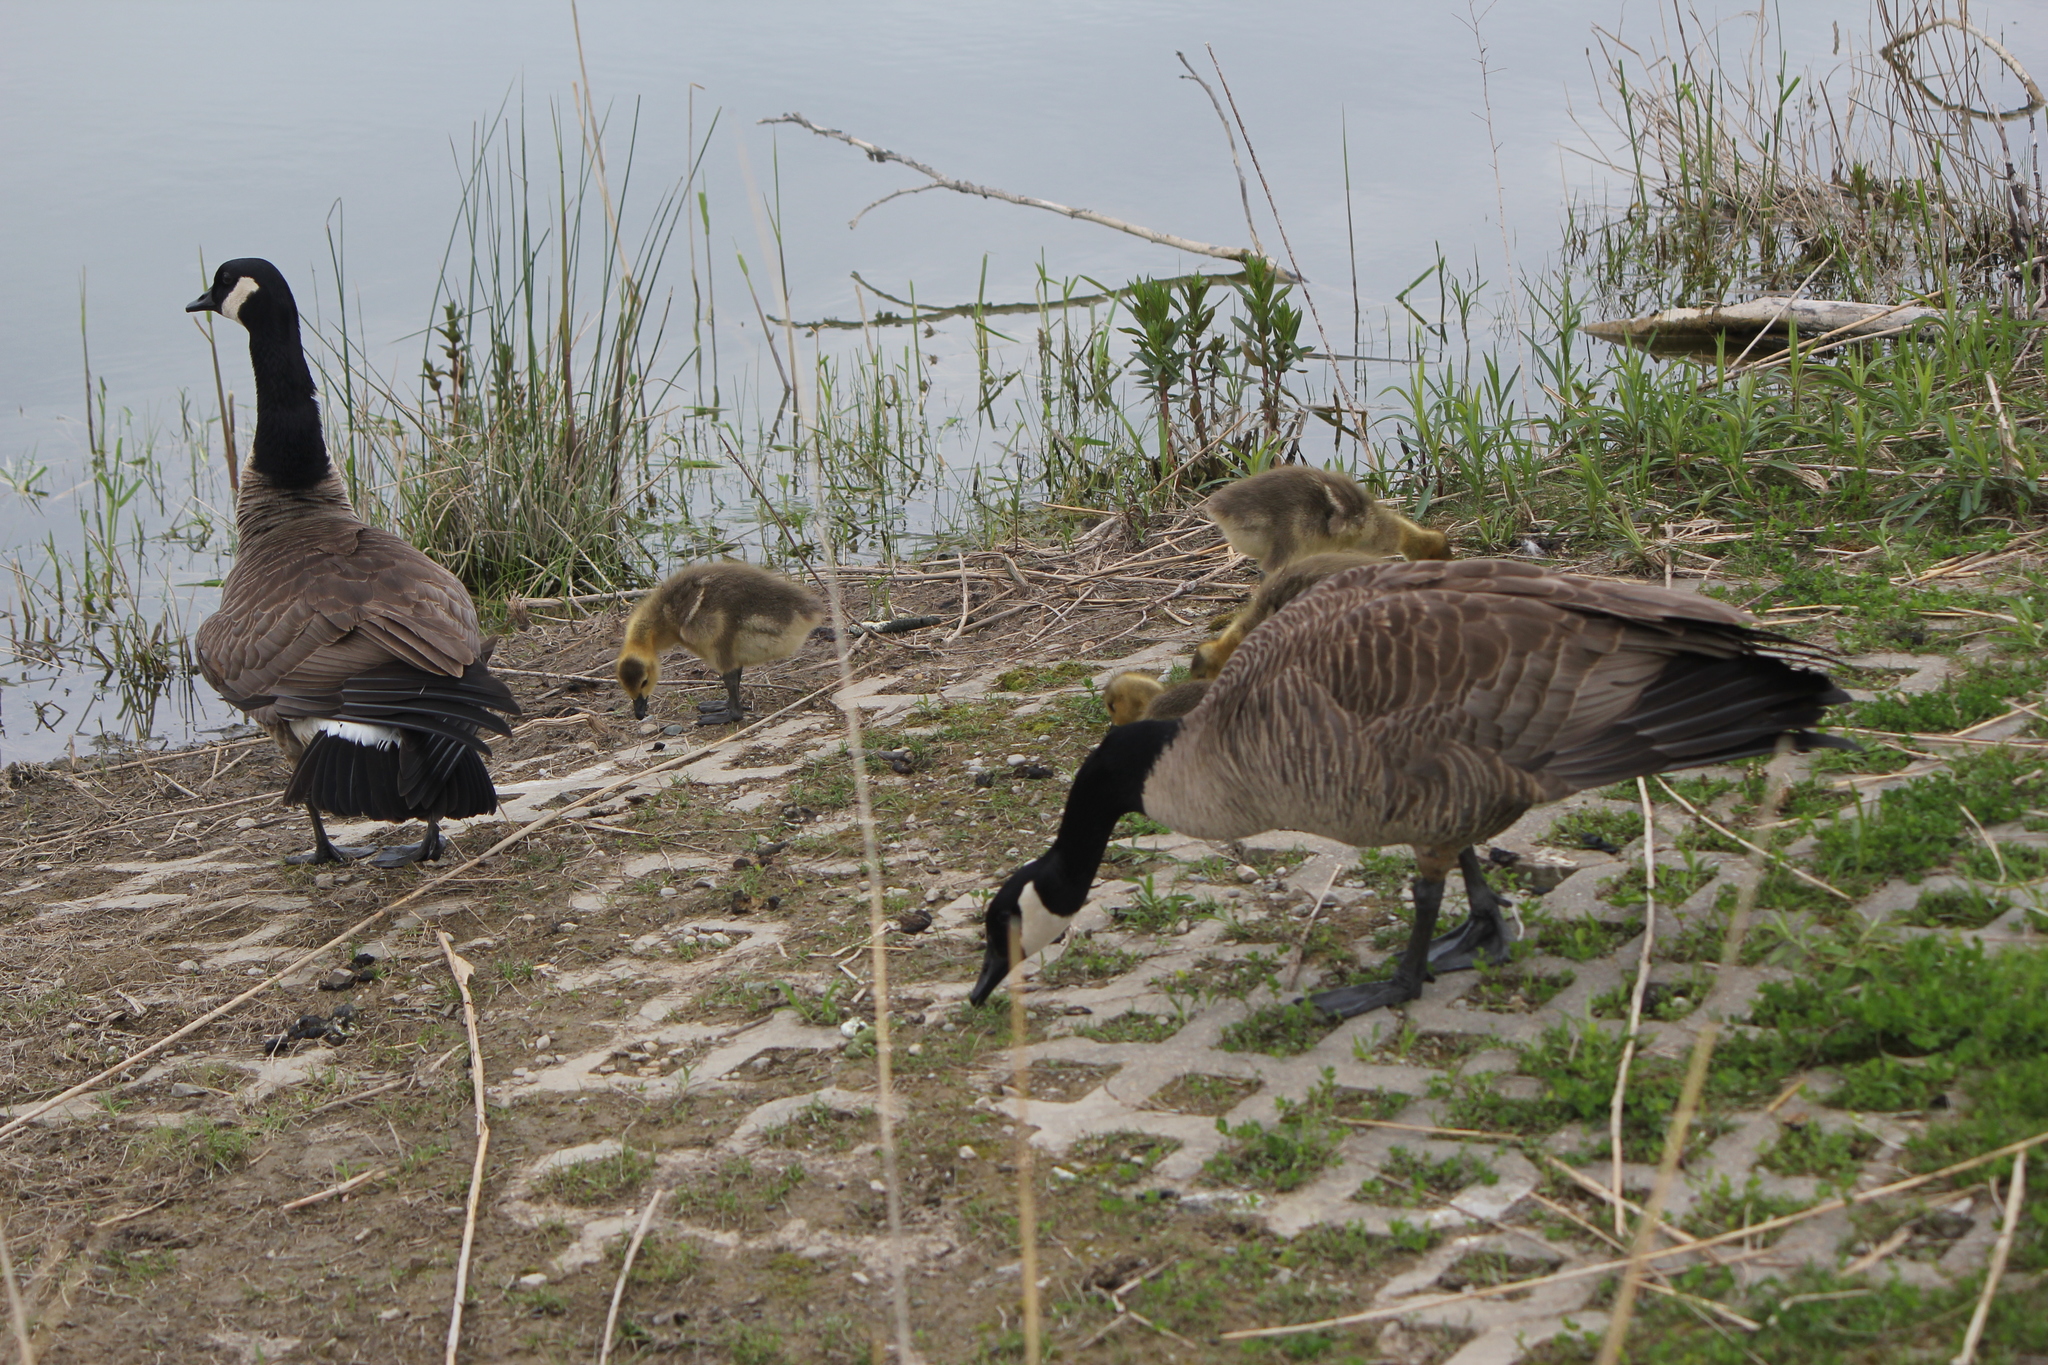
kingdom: Animalia
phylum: Chordata
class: Aves
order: Anseriformes
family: Anatidae
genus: Branta
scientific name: Branta canadensis
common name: Canada goose
